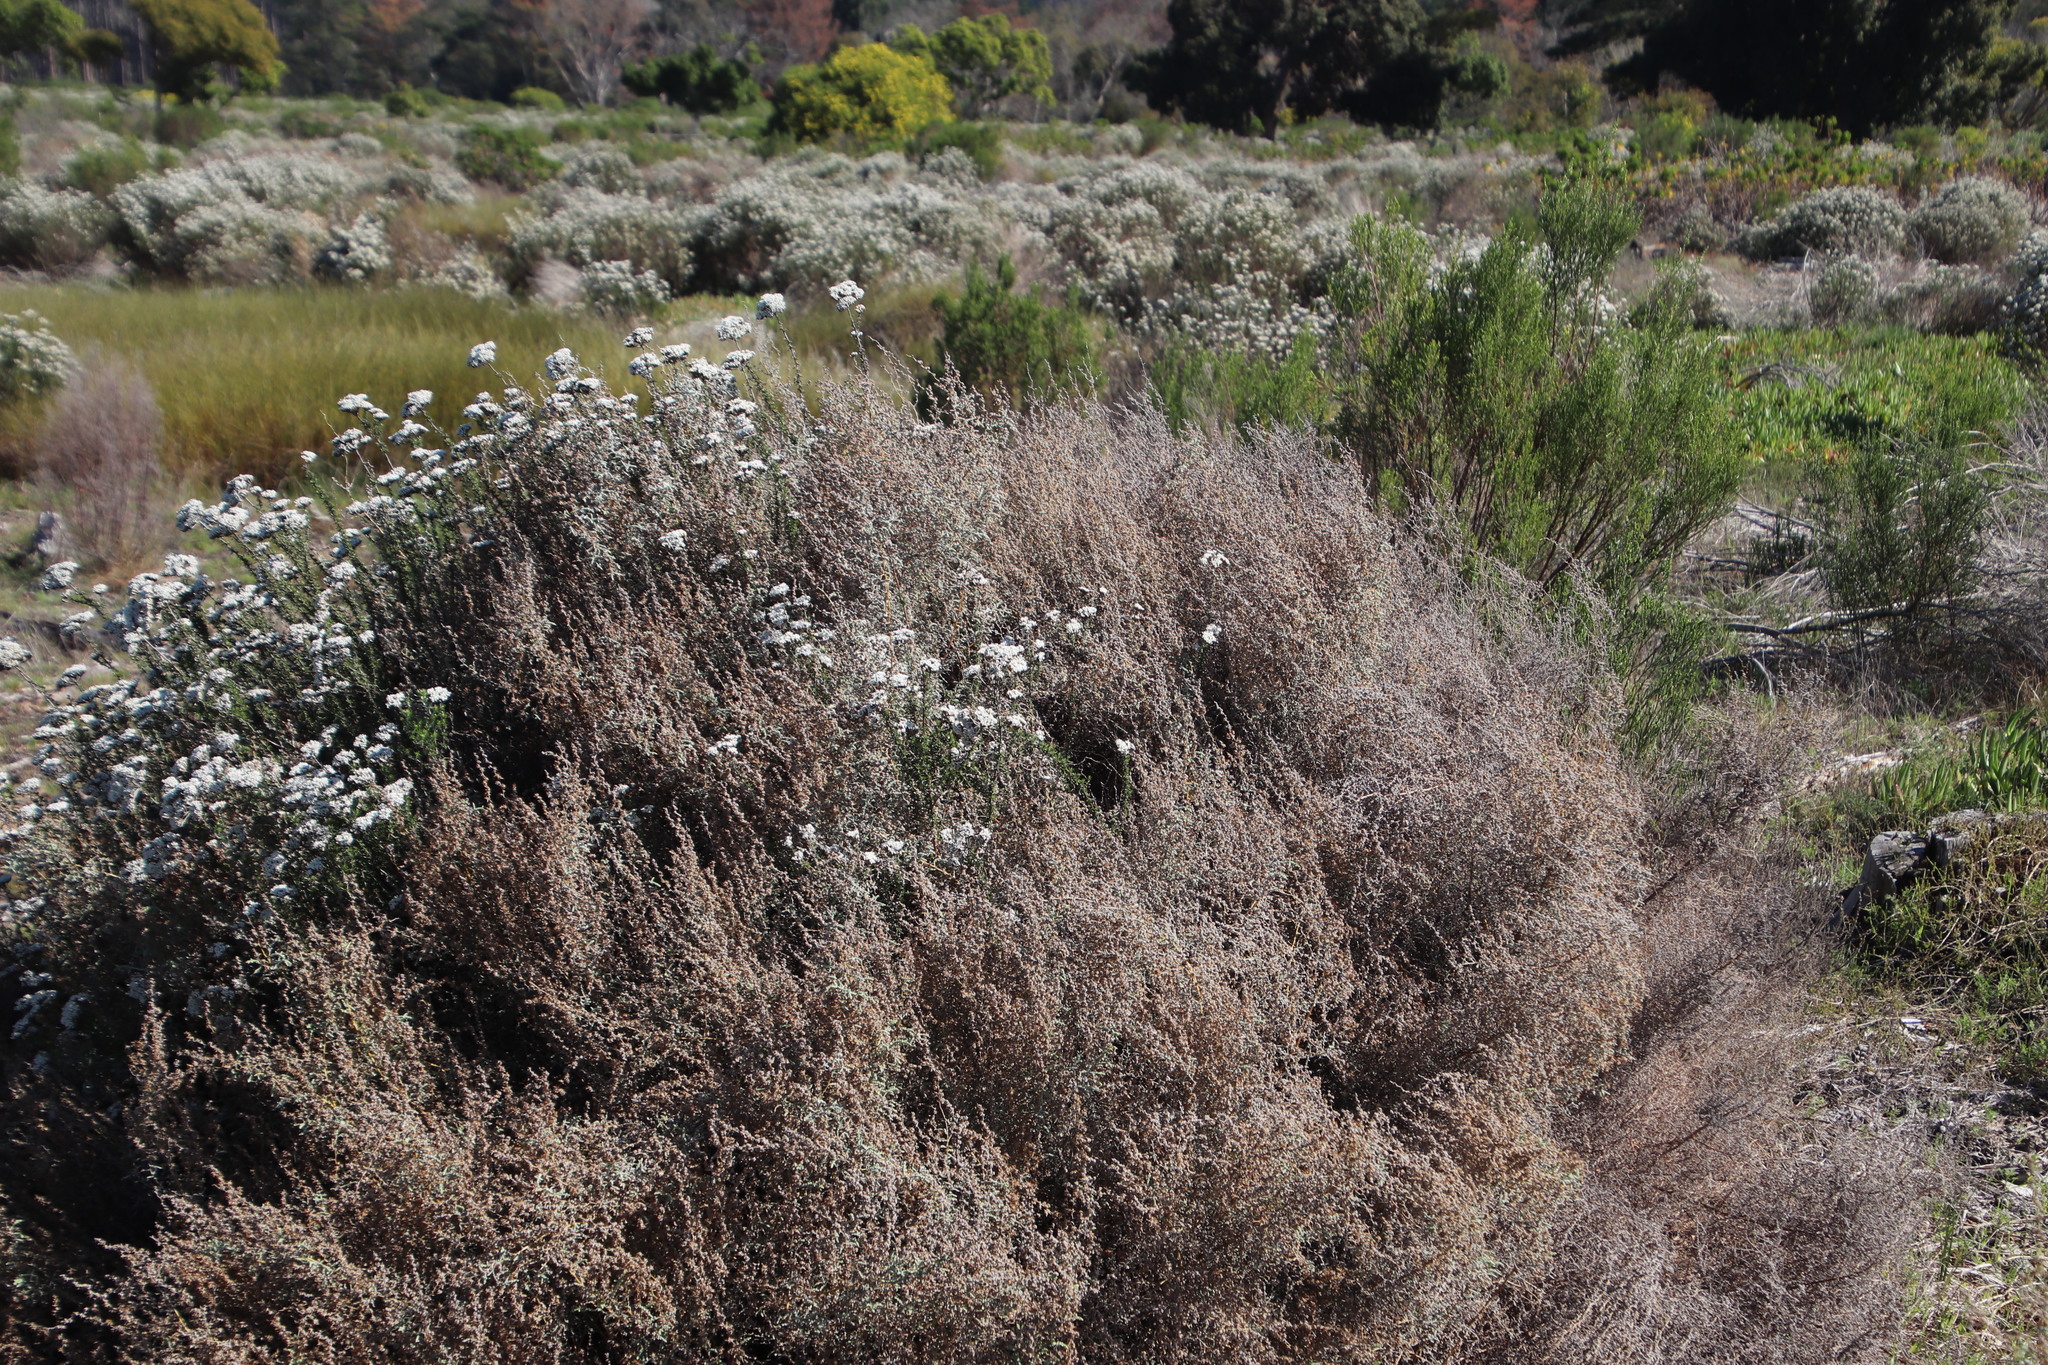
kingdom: Plantae
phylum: Tracheophyta
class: Magnoliopsida
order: Asterales
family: Asteraceae
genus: Seriphium
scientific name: Seriphium plumosum
